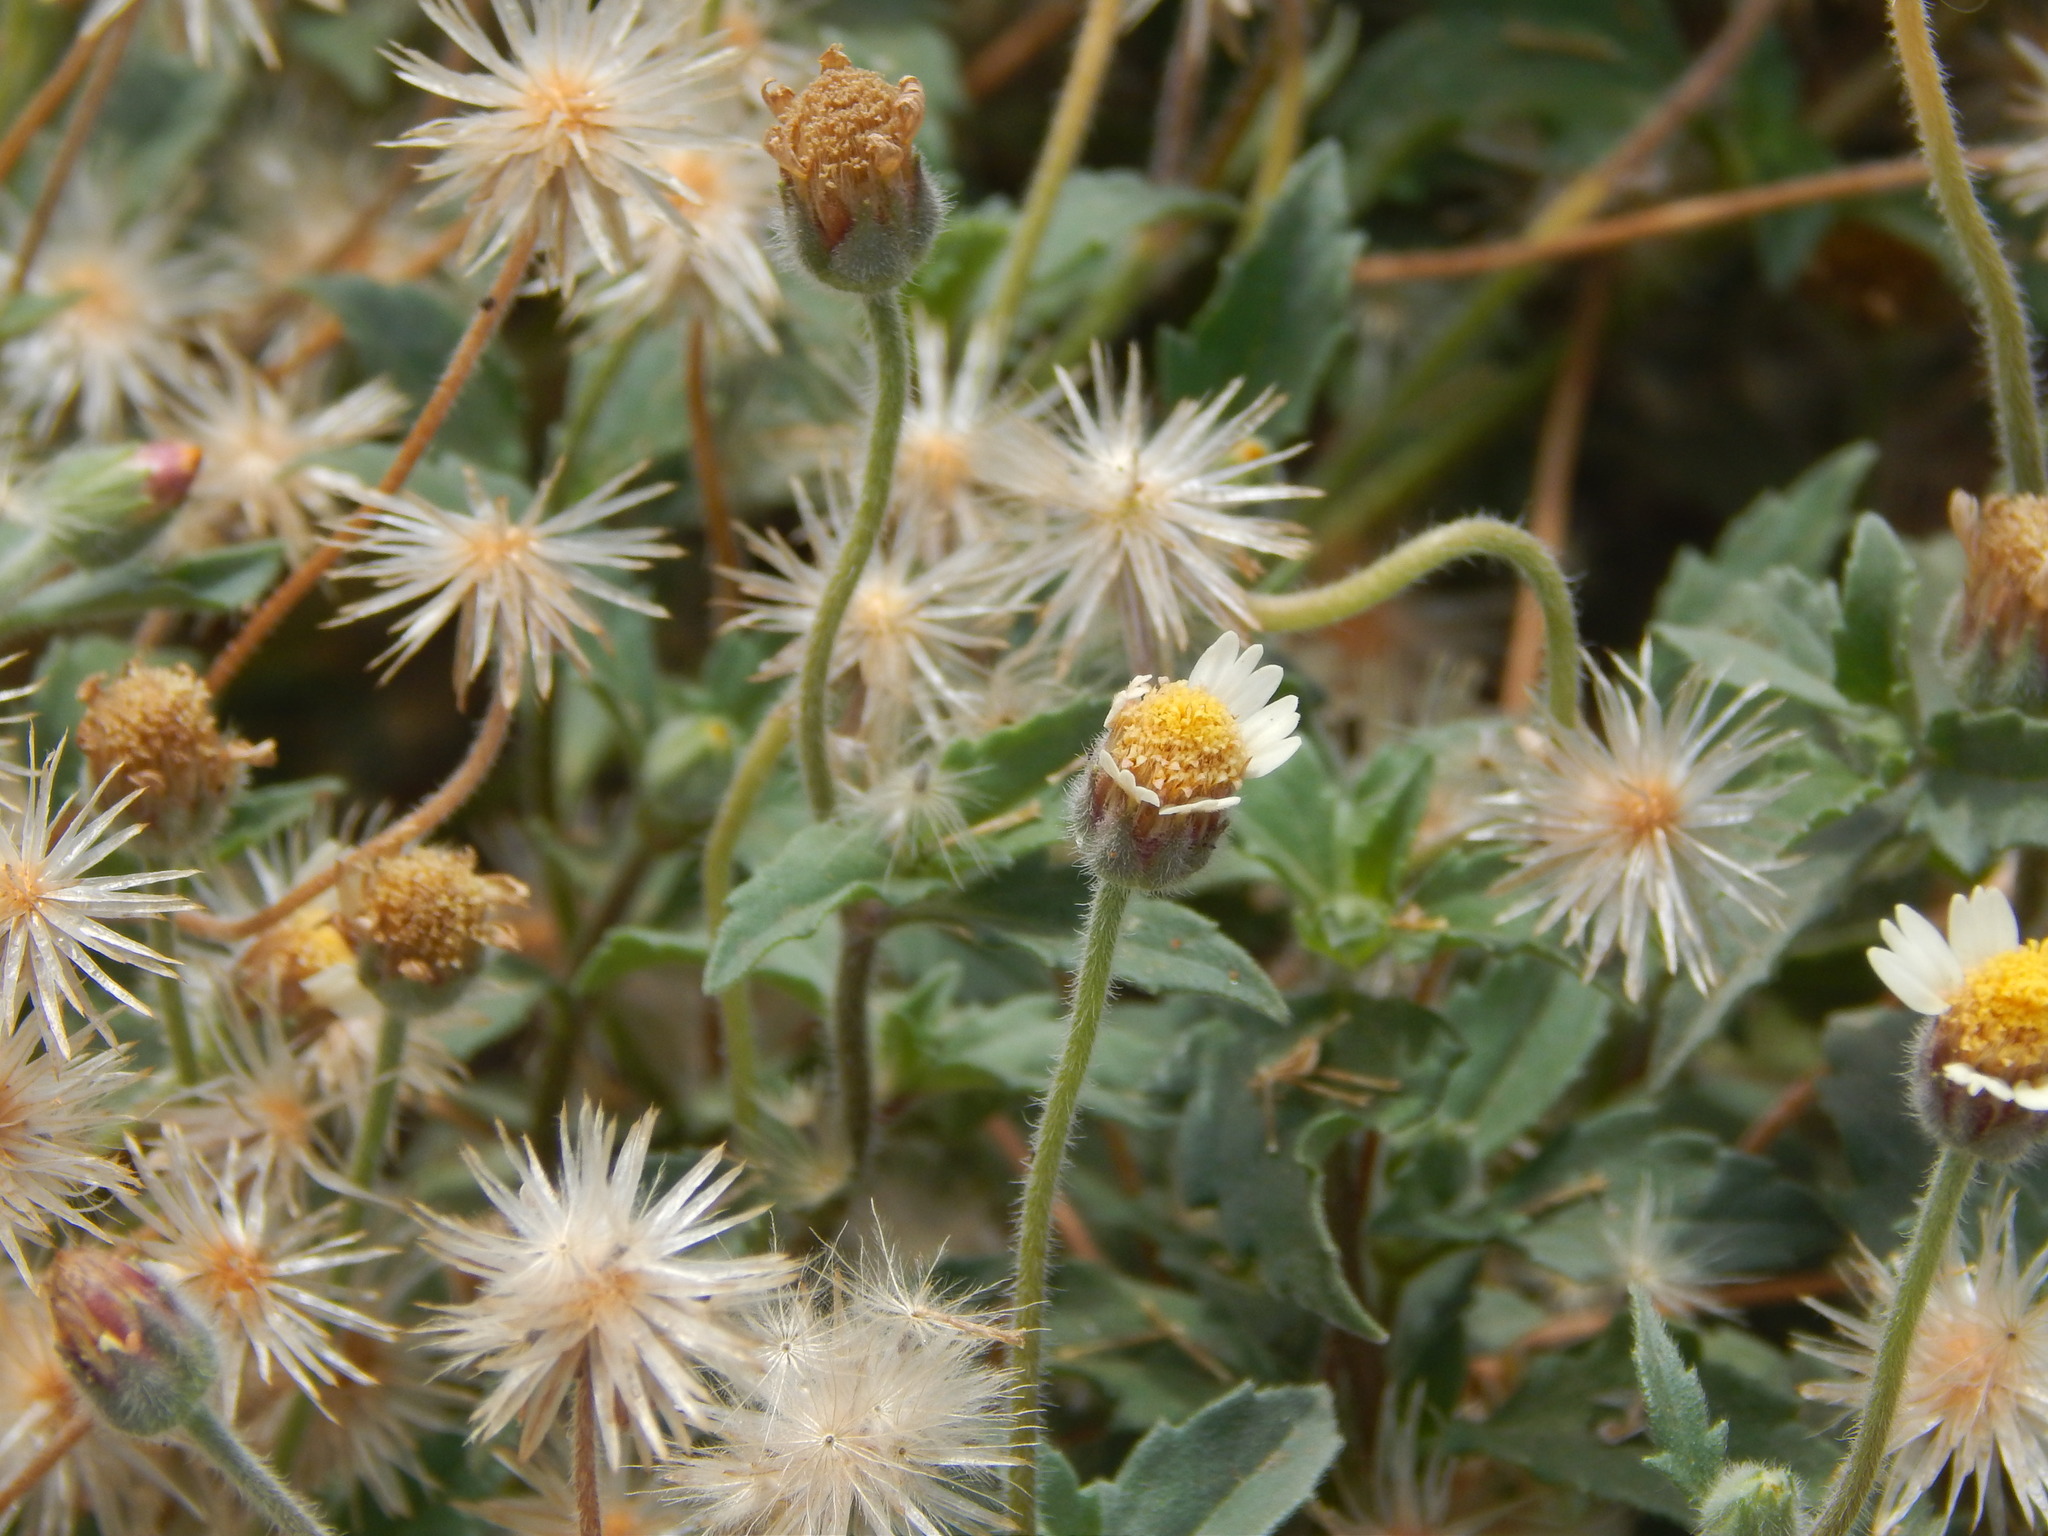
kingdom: Plantae
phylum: Tracheophyta
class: Magnoliopsida
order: Asterales
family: Asteraceae
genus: Tridax
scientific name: Tridax procumbens
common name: Coatbuttons
